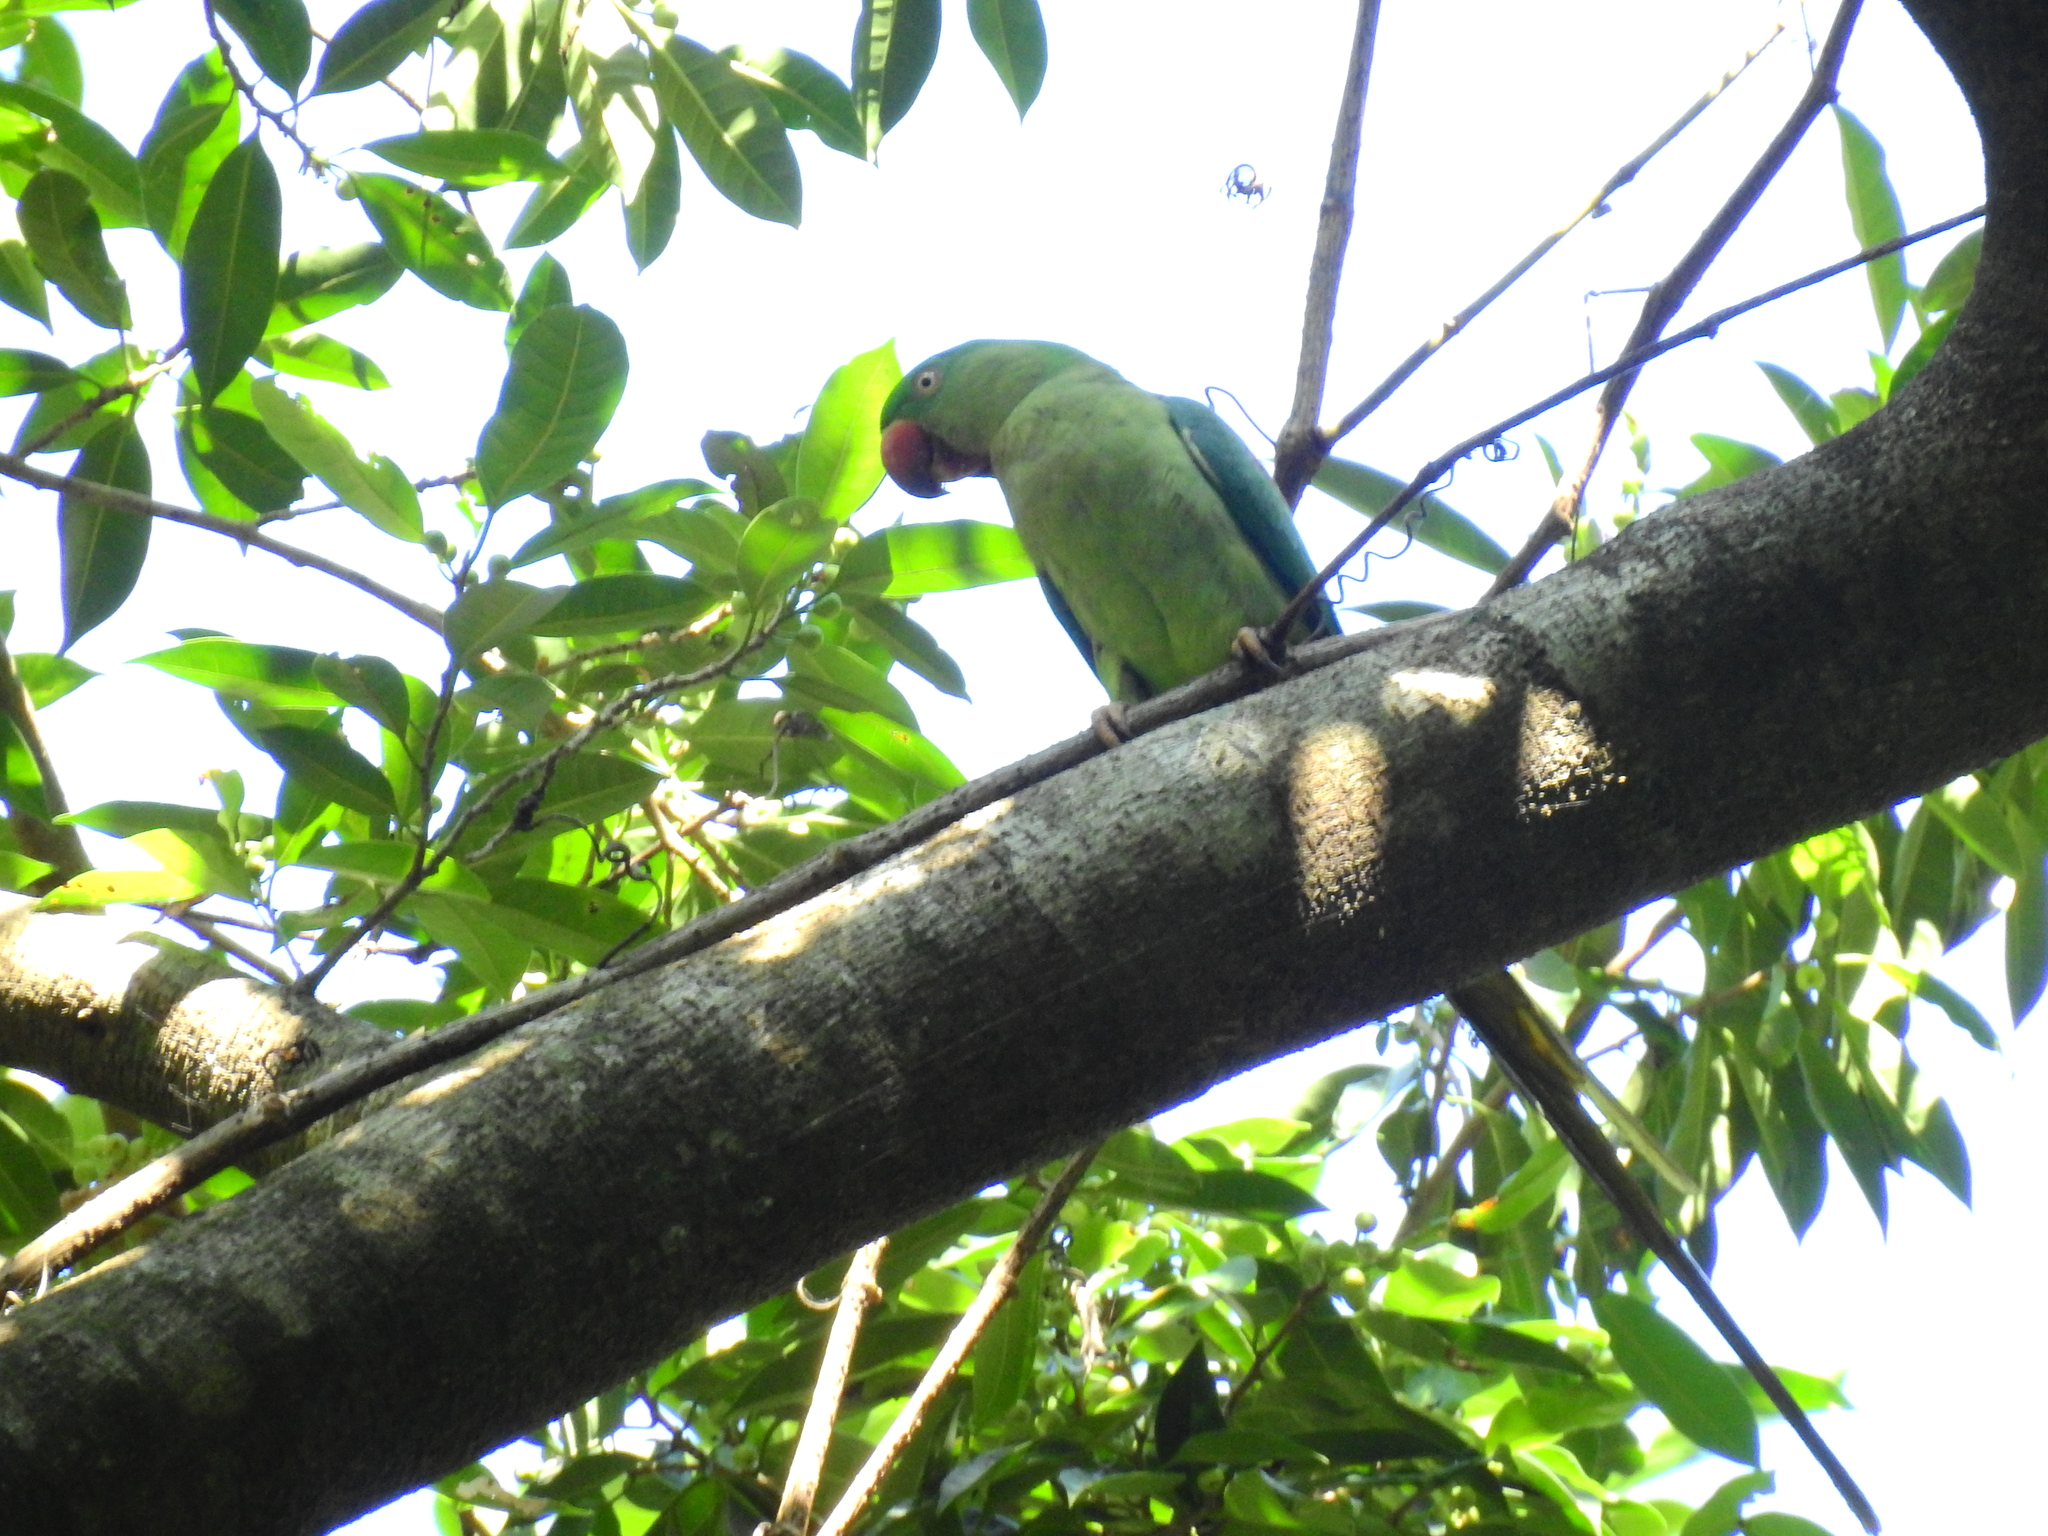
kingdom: Animalia
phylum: Chordata
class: Aves
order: Psittaciformes
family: Psittacidae
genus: Psittacula
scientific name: Psittacula eupatria
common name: Alexandrine parakeet
